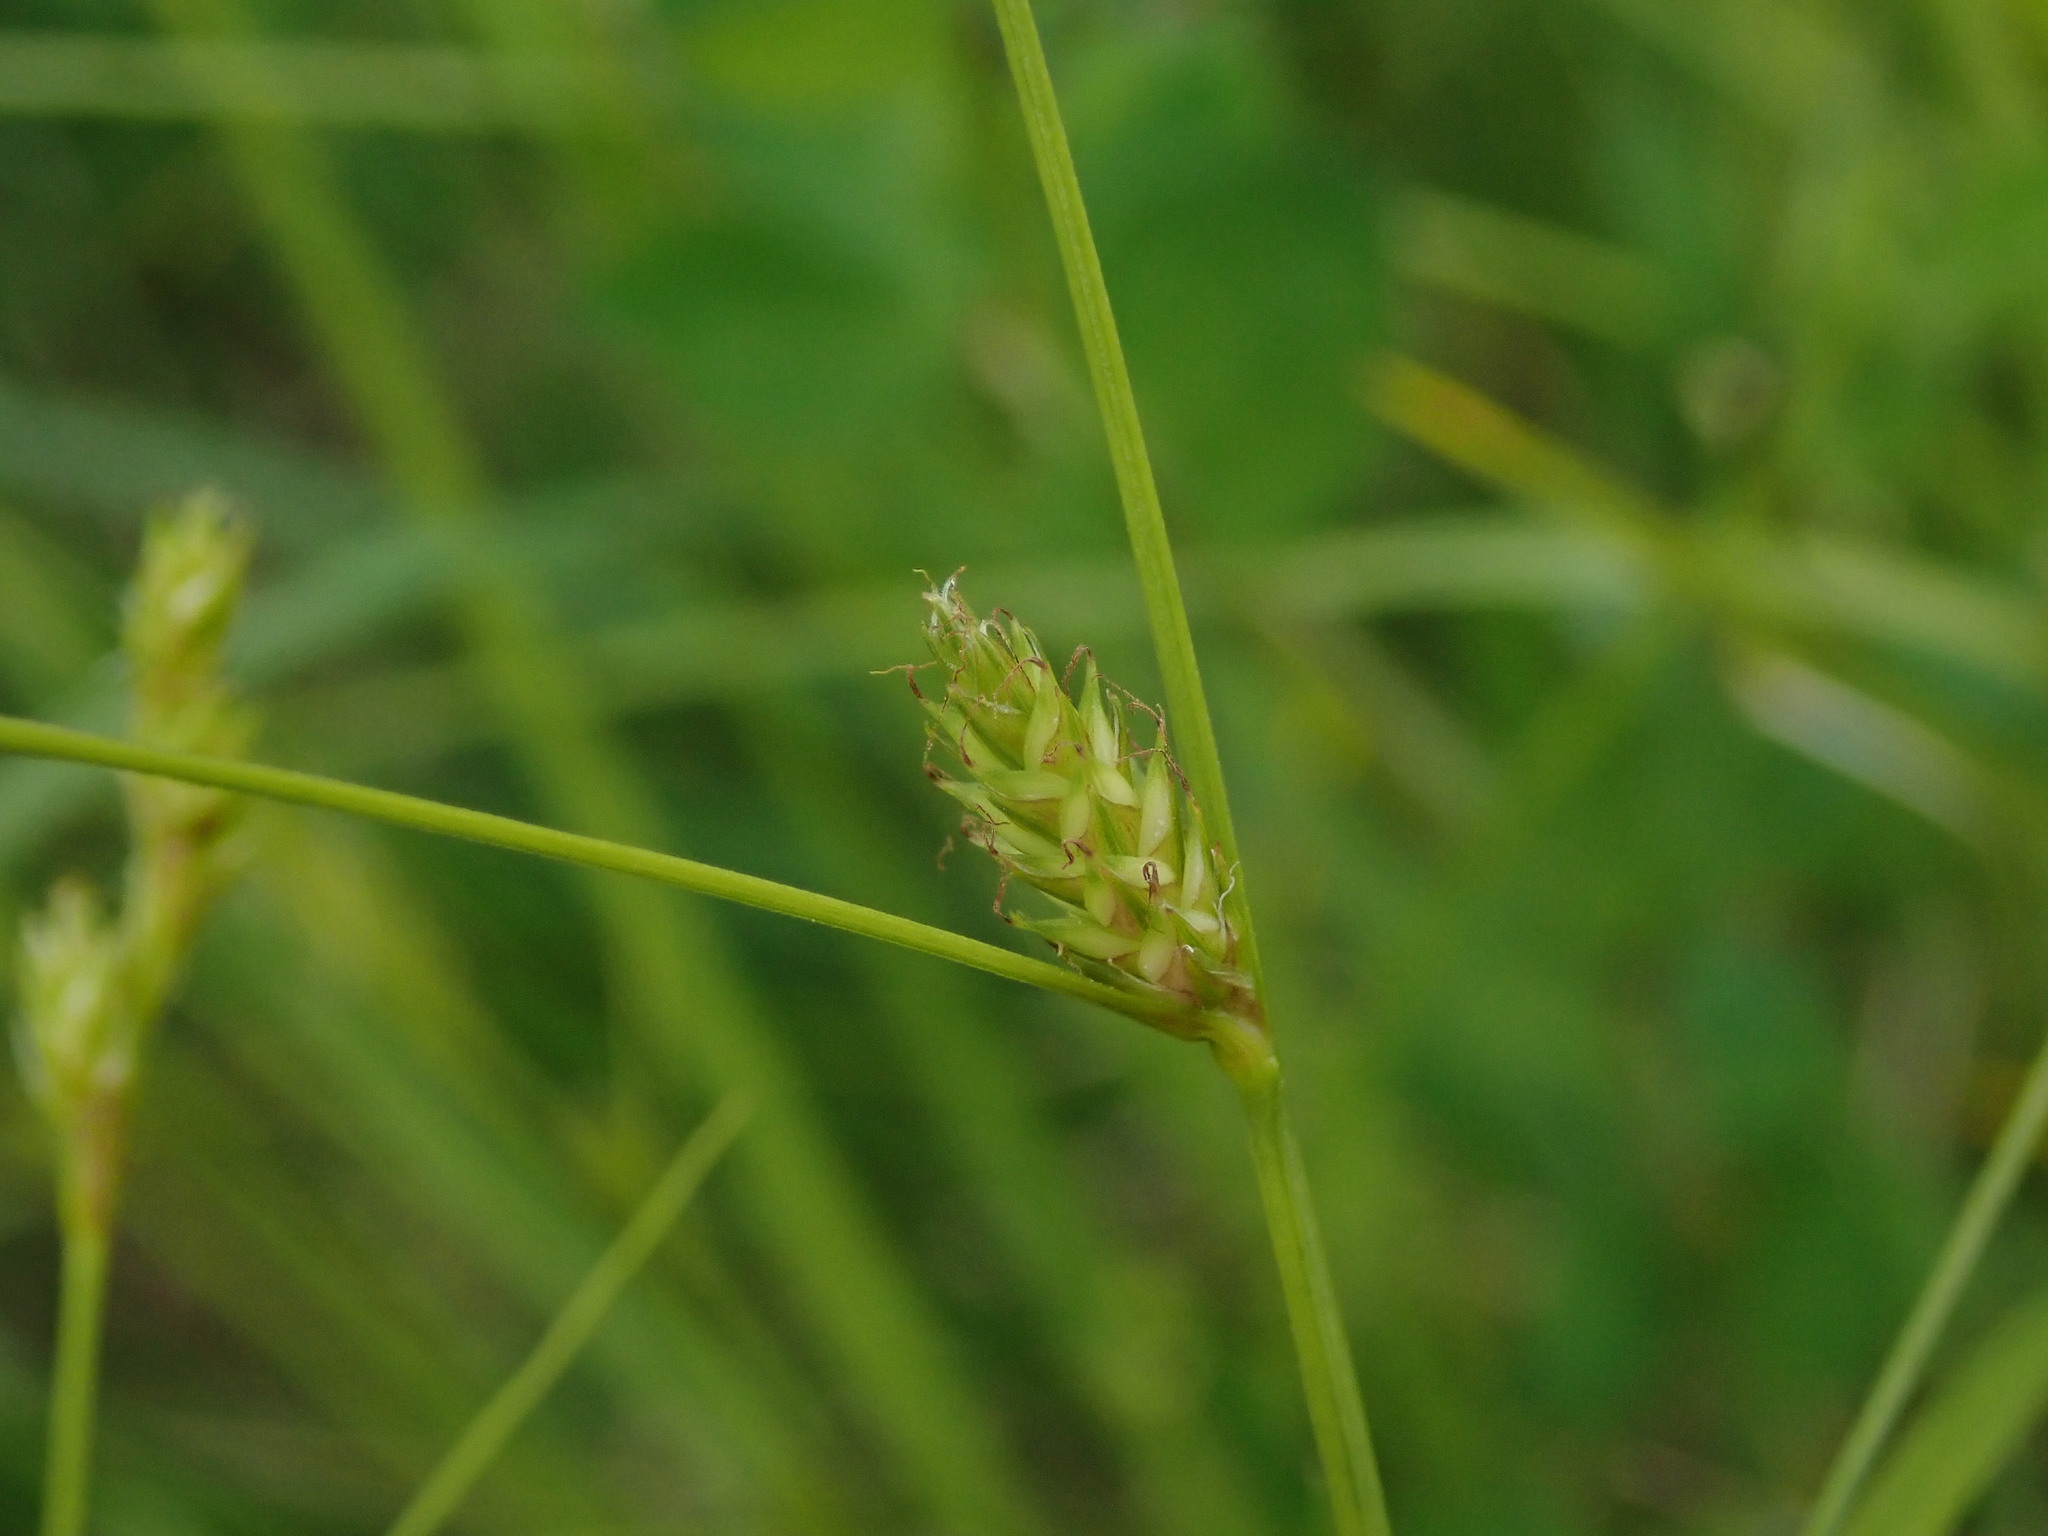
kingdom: Plantae
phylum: Tracheophyta
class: Liliopsida
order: Poales
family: Cyperaceae
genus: Carex
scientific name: Carex remota
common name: Remote sedge
